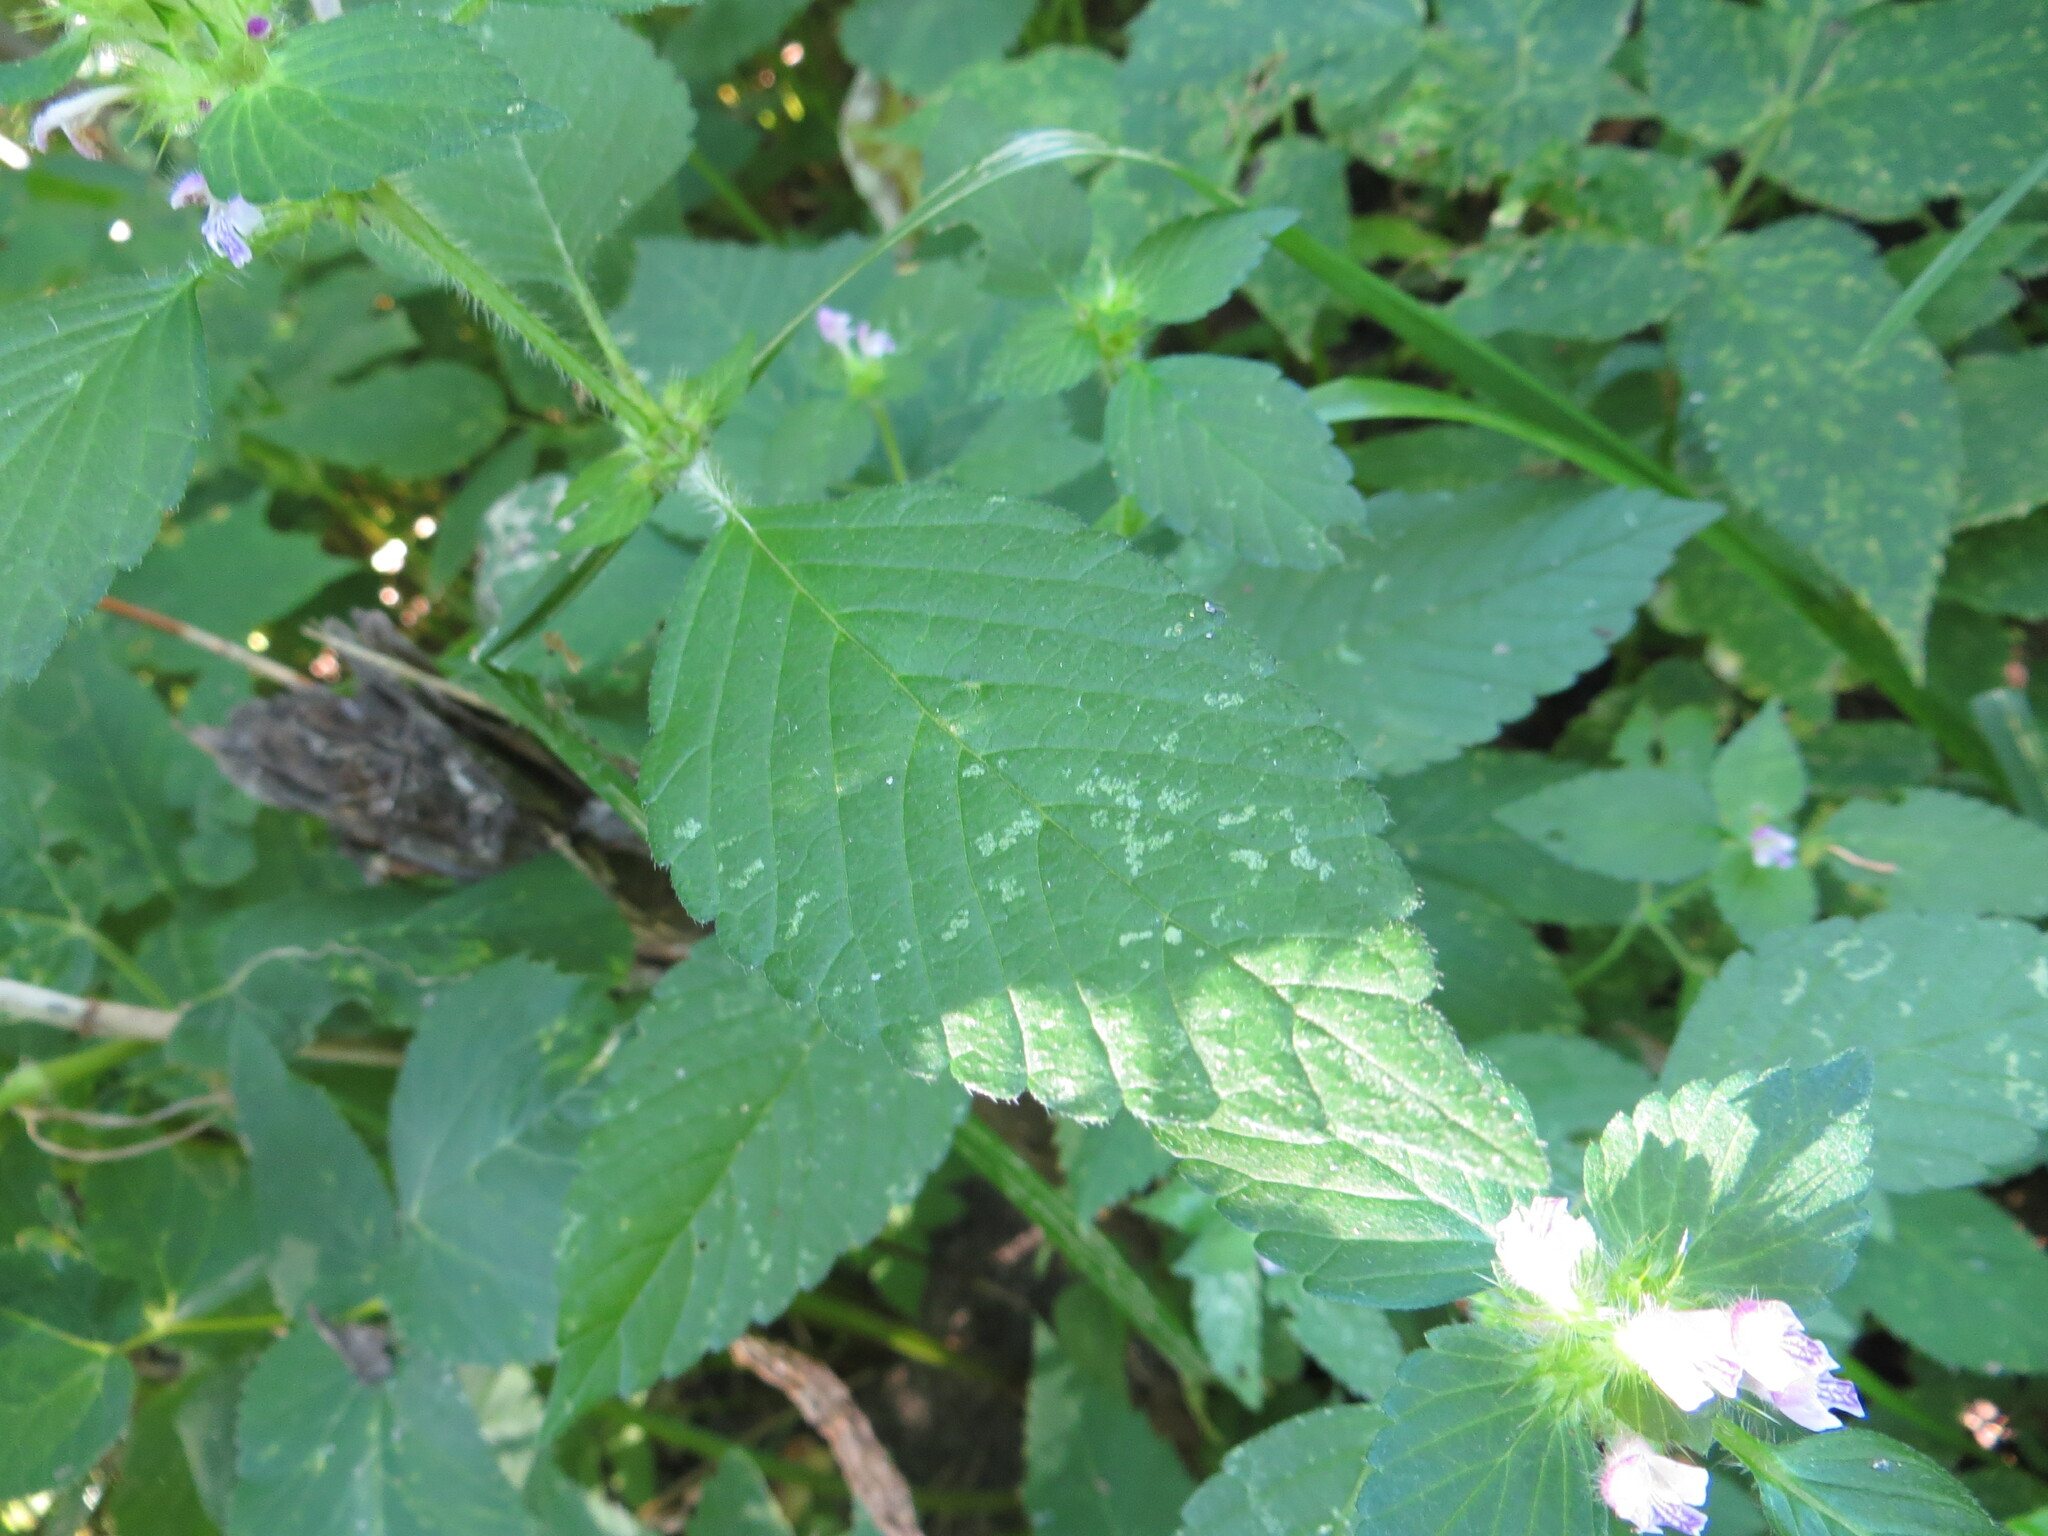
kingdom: Plantae
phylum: Tracheophyta
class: Magnoliopsida
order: Lamiales
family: Lamiaceae
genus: Galeopsis
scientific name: Galeopsis bifida
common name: Bifid hemp-nettle
